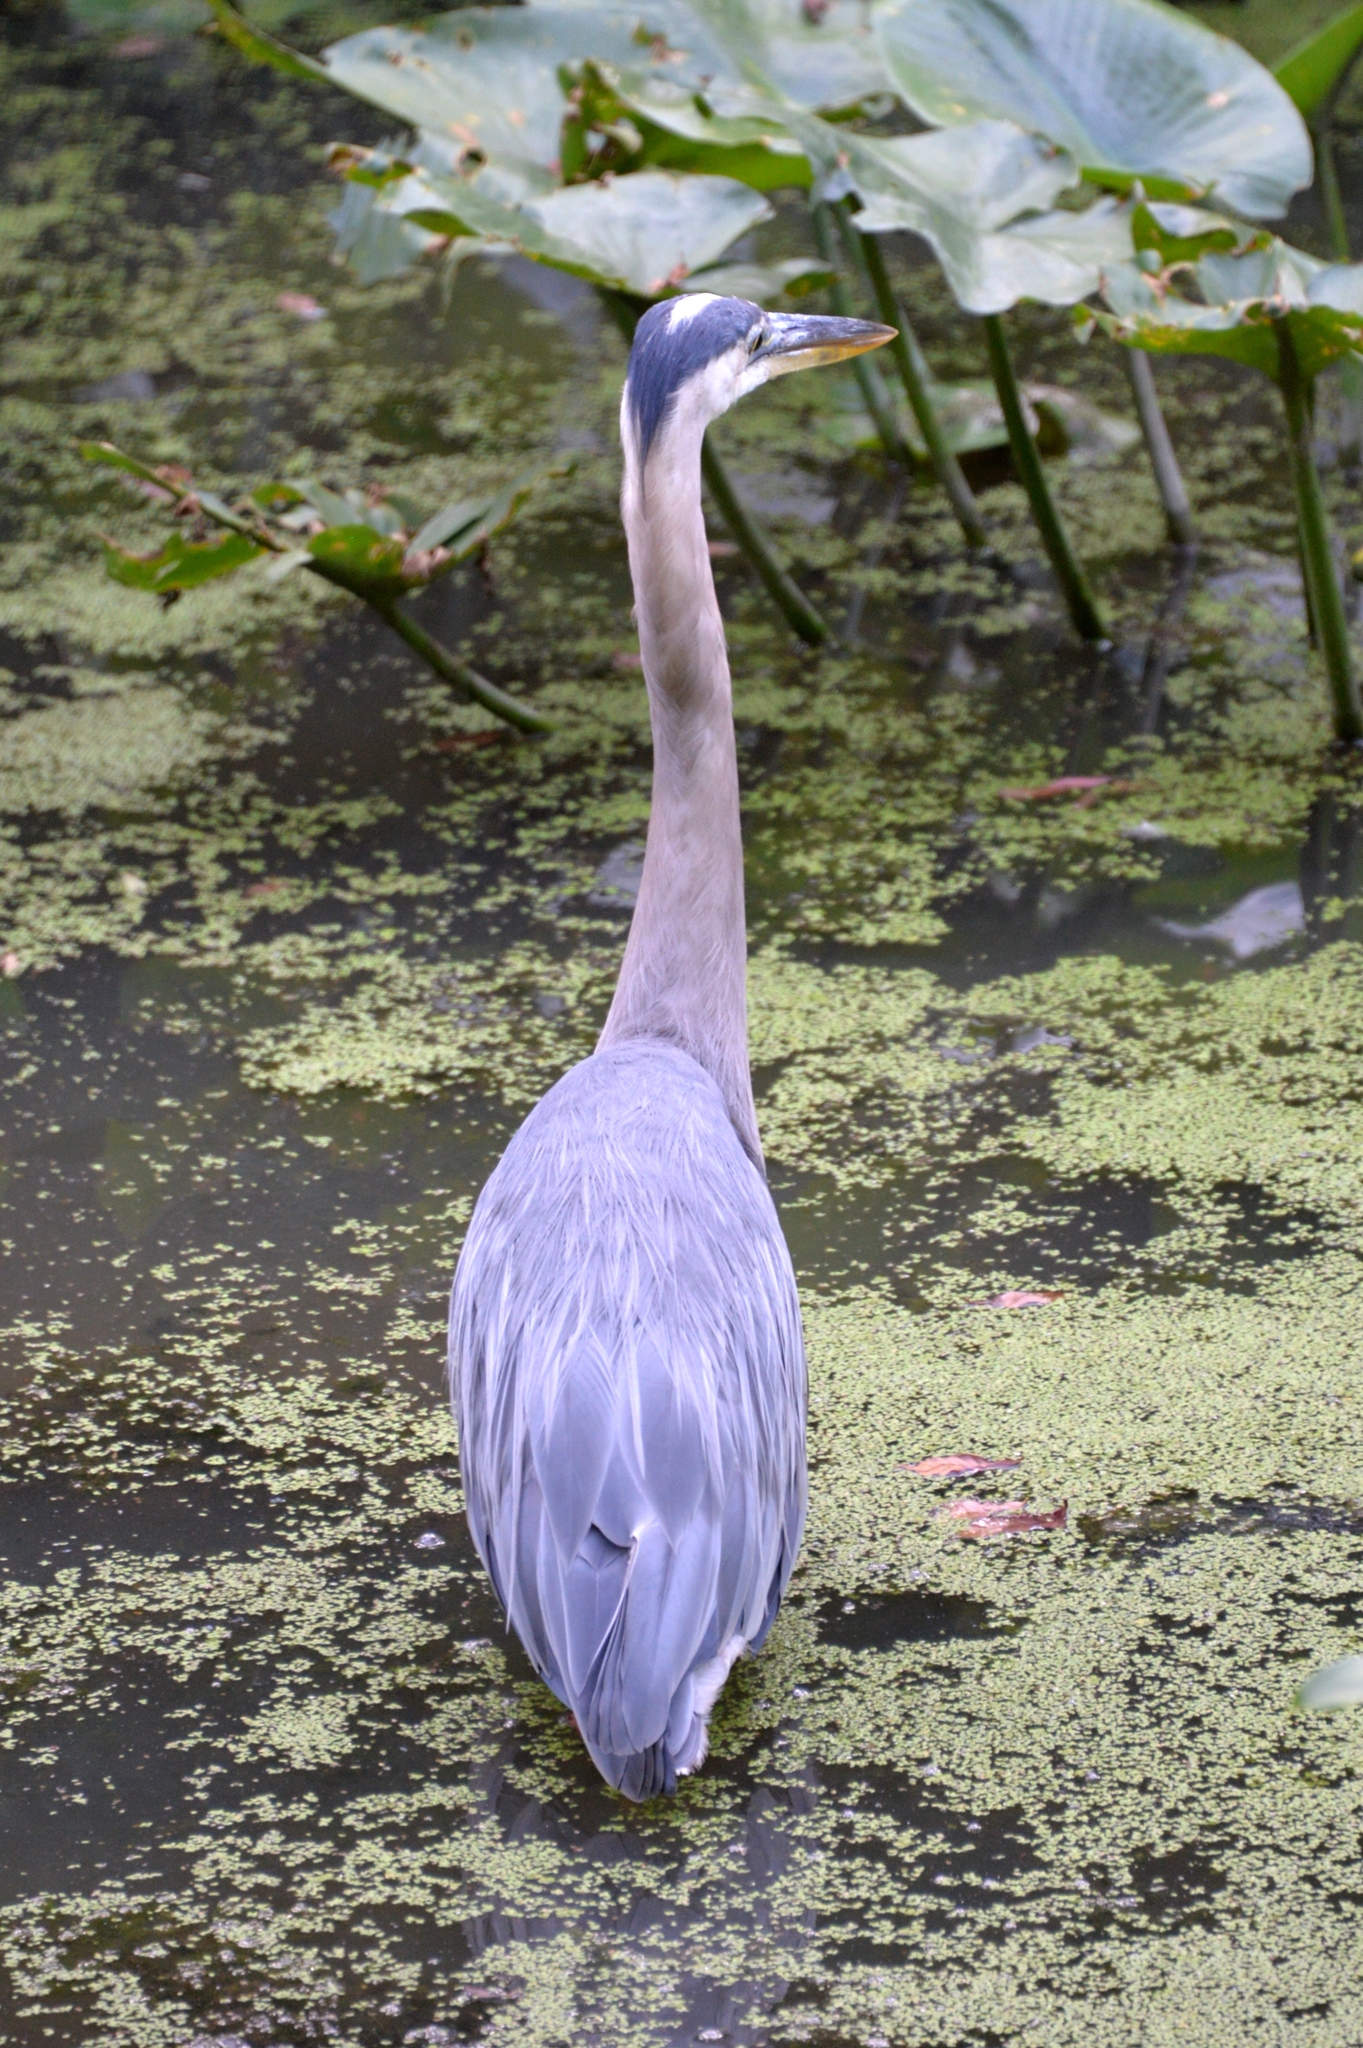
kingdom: Animalia
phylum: Chordata
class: Aves
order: Pelecaniformes
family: Ardeidae
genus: Ardea
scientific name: Ardea herodias
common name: Great blue heron
